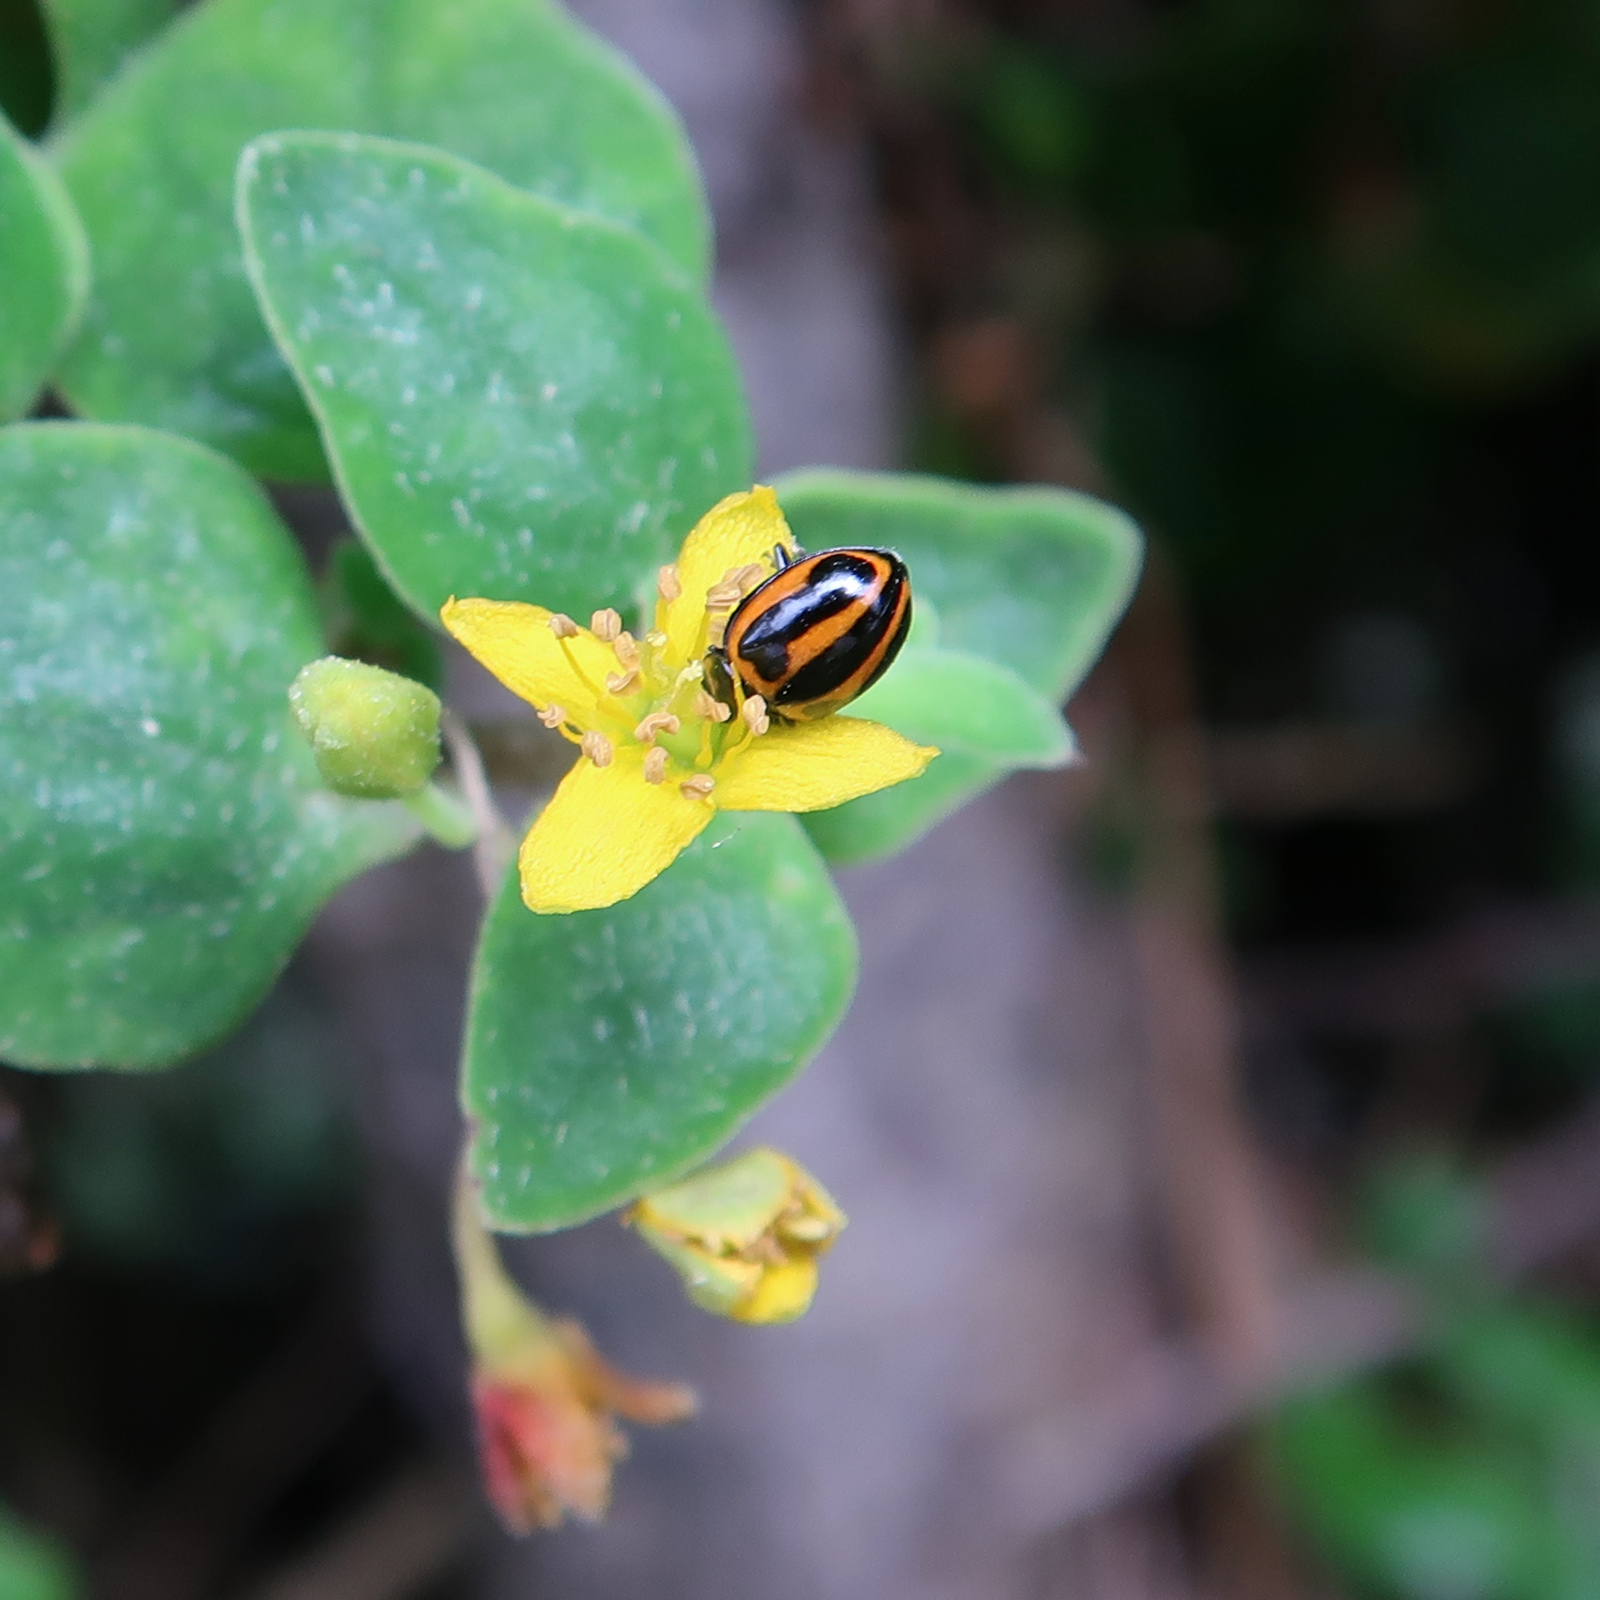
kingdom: Animalia
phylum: Arthropoda
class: Insecta
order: Coleoptera
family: Coccinellidae
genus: Micraspis
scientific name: Micraspis frenata
